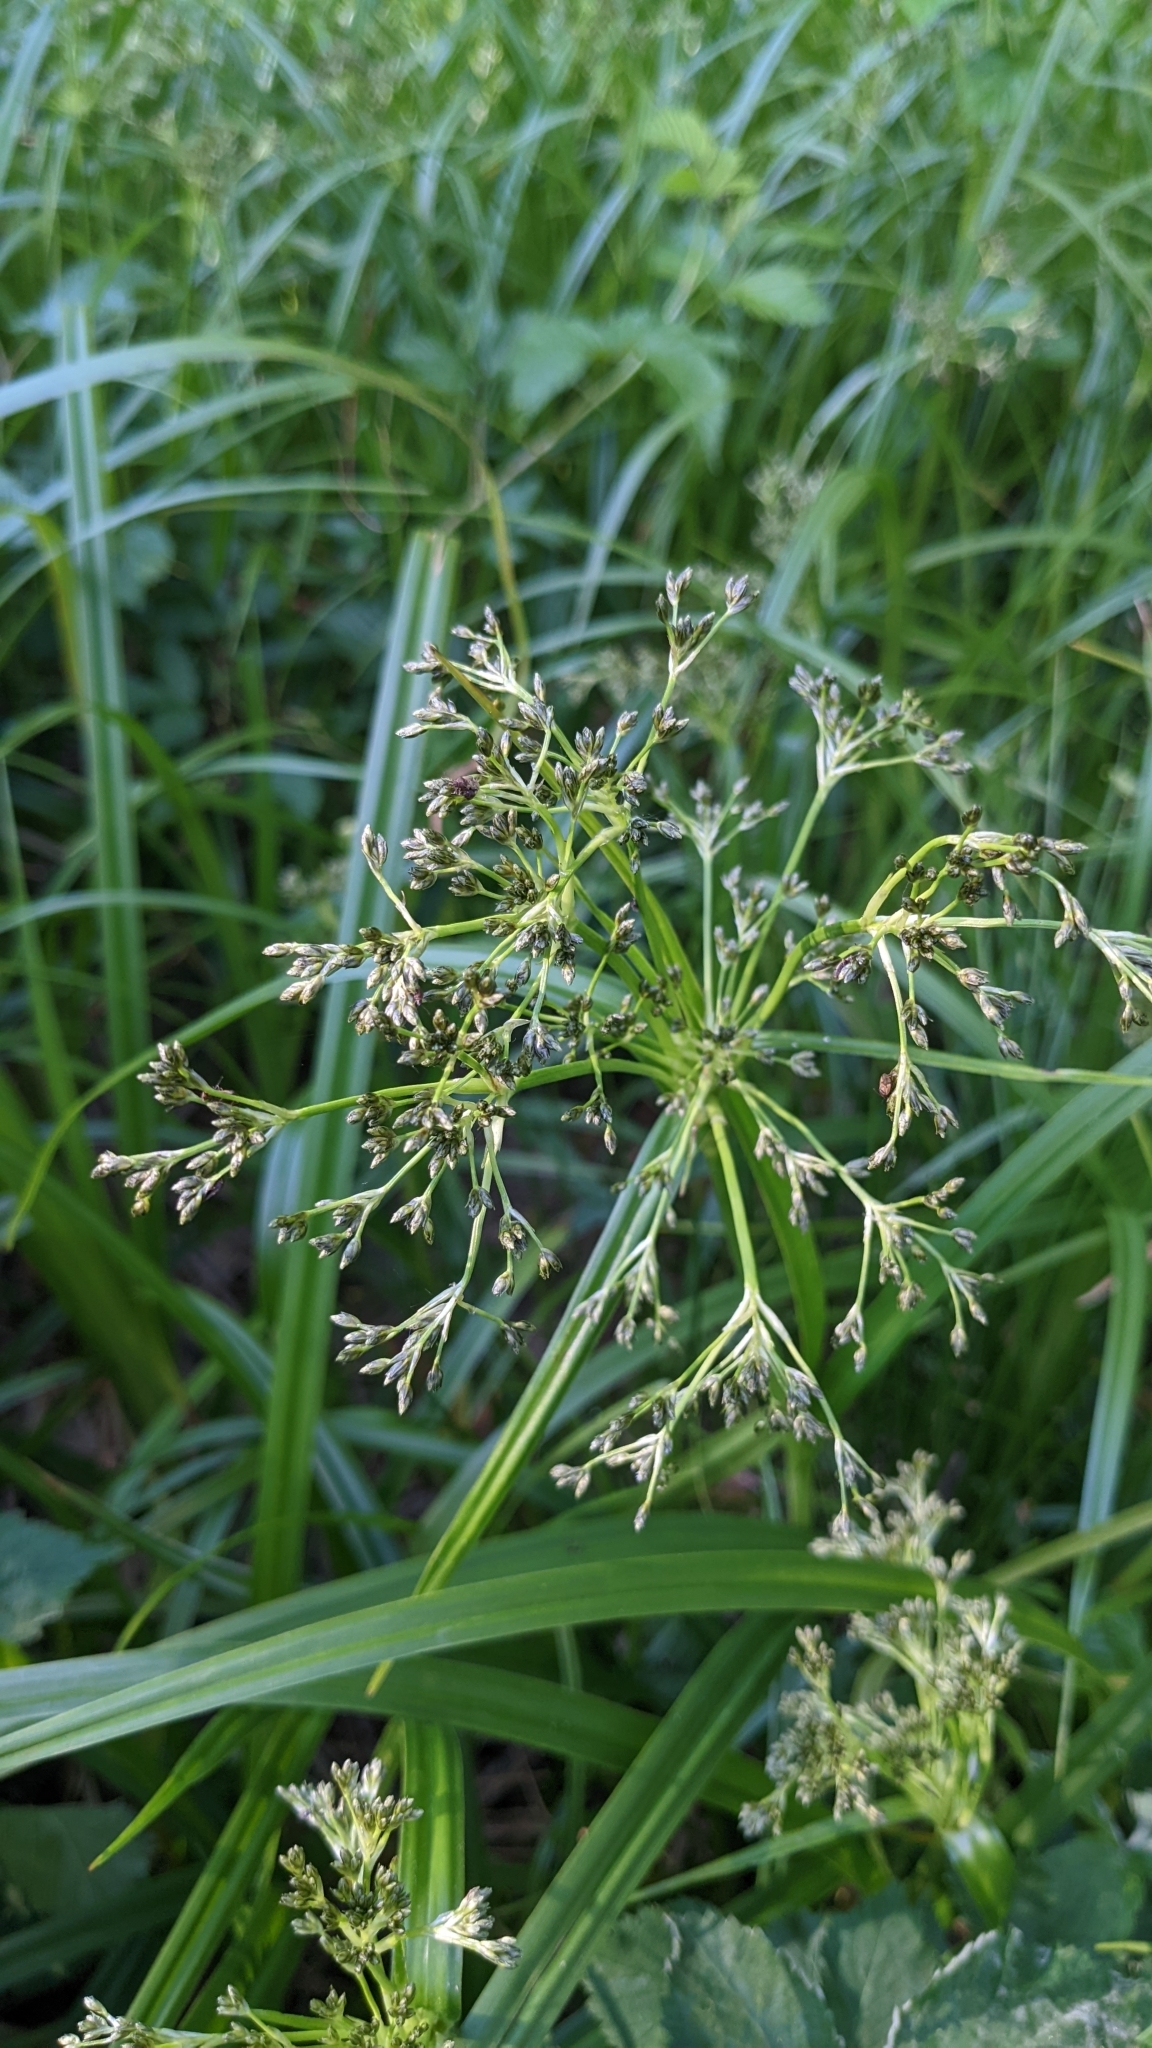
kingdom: Plantae
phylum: Tracheophyta
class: Liliopsida
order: Poales
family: Cyperaceae
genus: Scirpus
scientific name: Scirpus sylvaticus
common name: Wood club-rush
